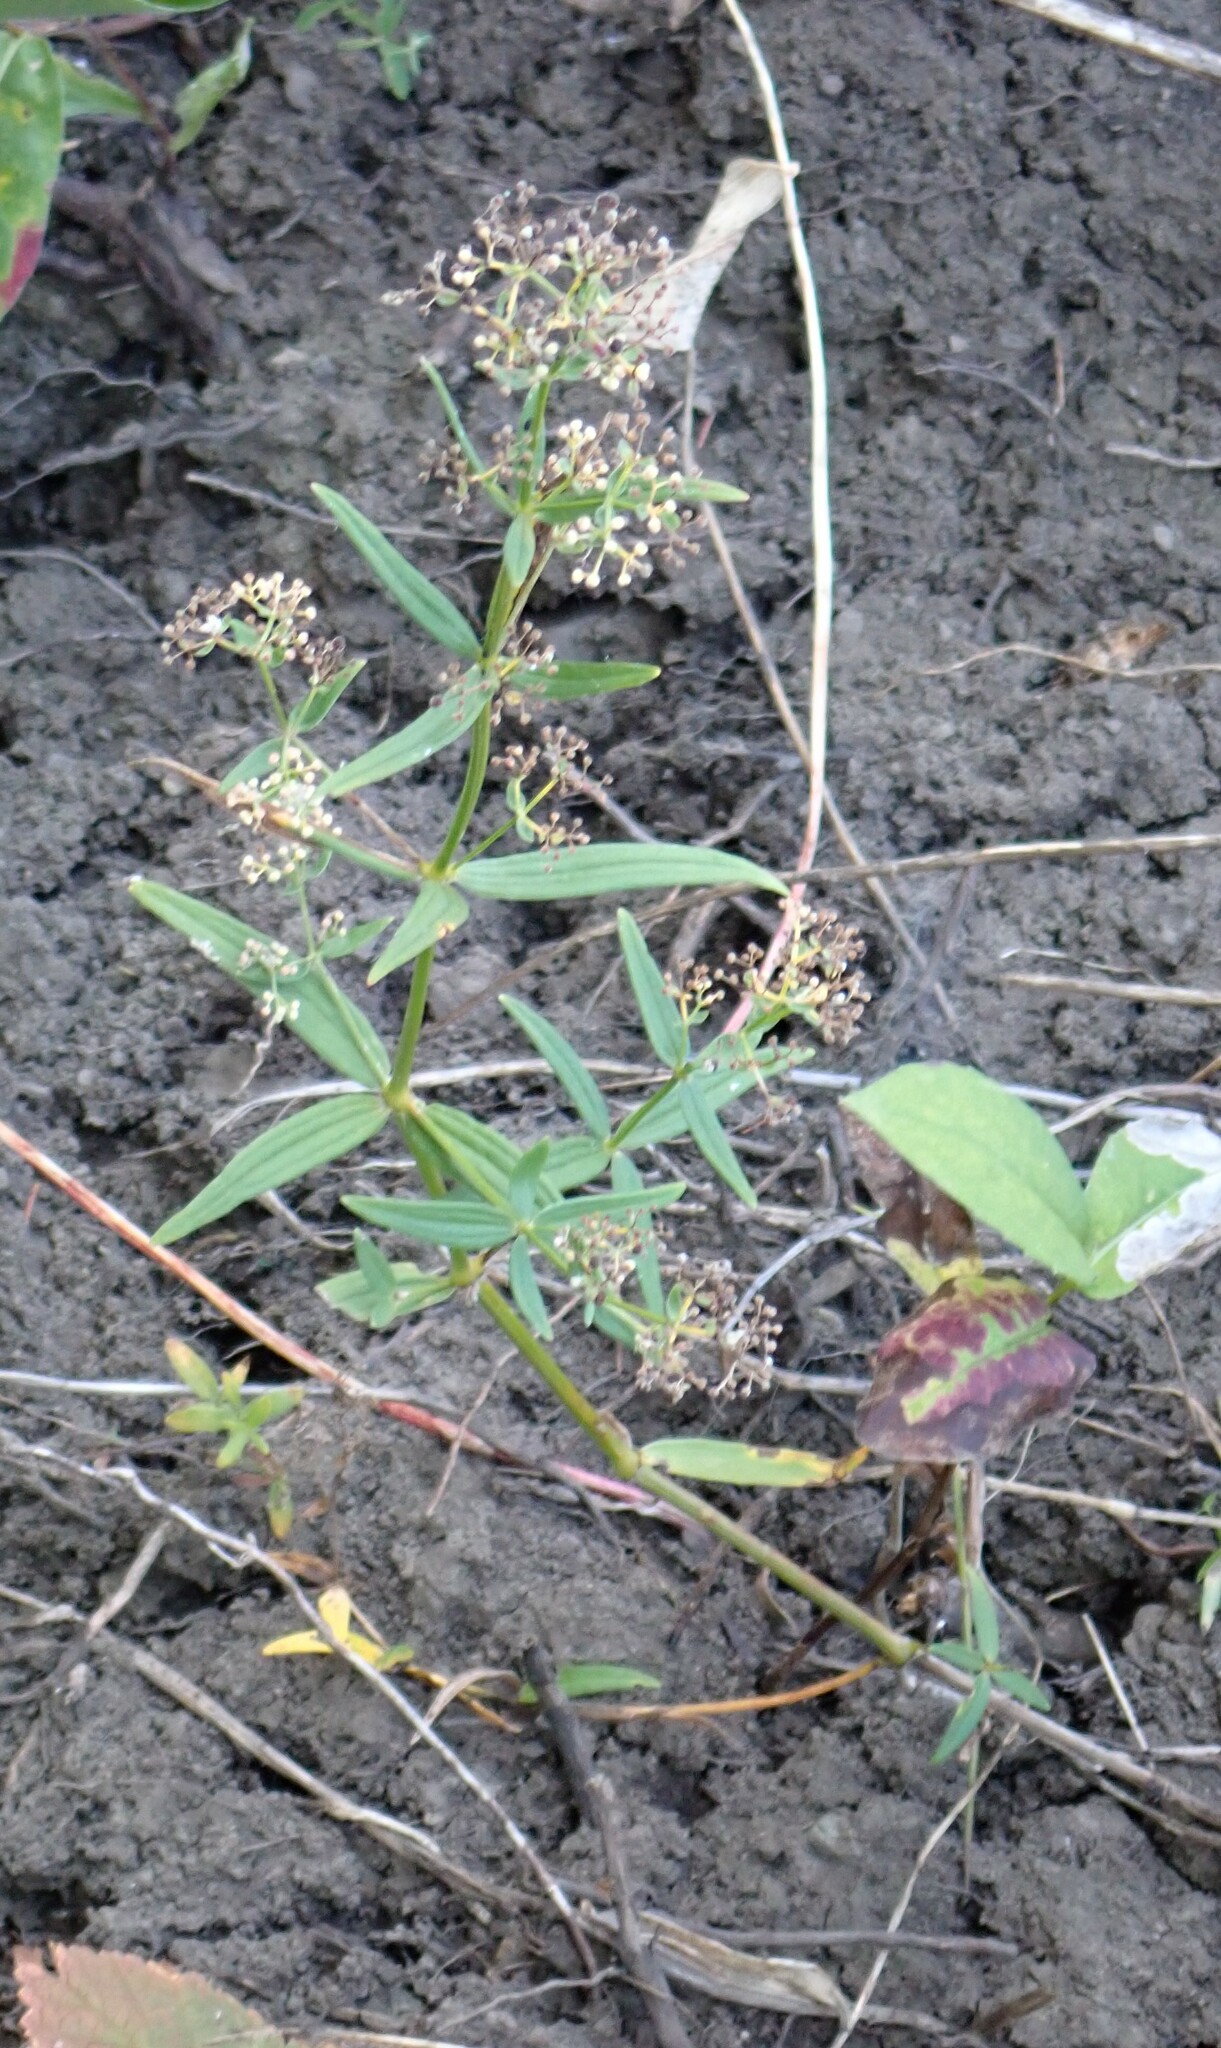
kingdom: Plantae
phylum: Tracheophyta
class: Magnoliopsida
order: Gentianales
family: Rubiaceae
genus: Galium
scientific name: Galium boreale
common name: Northern bedstraw
